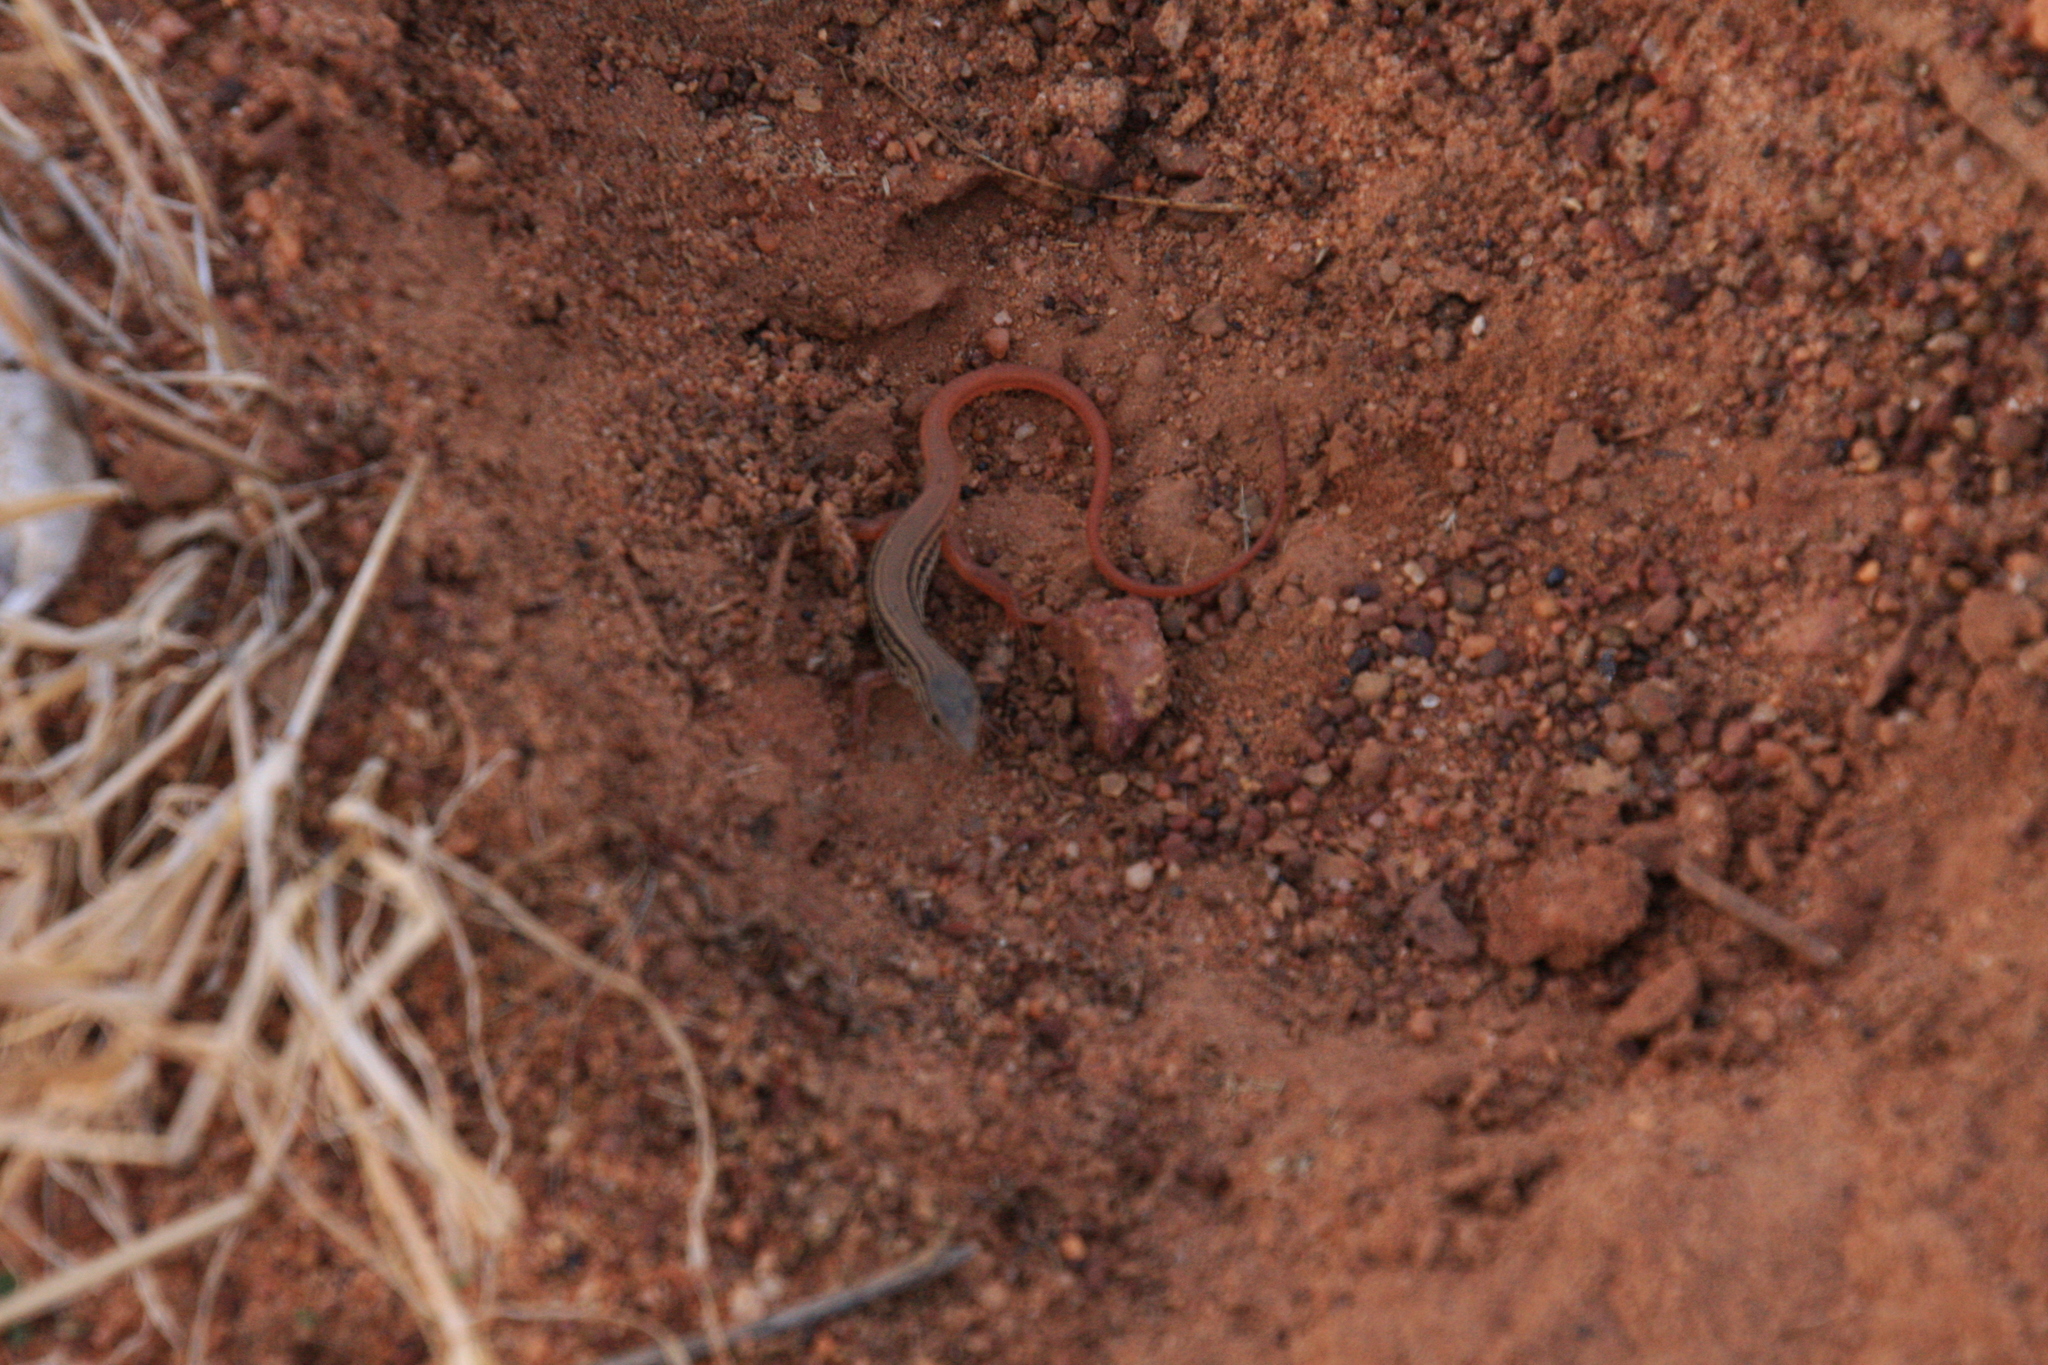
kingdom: Animalia
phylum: Chordata
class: Squamata
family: Lacertidae
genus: Acanthodactylus
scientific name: Acanthodactylus guineensis
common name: Guinea fringe-fingered lizard
